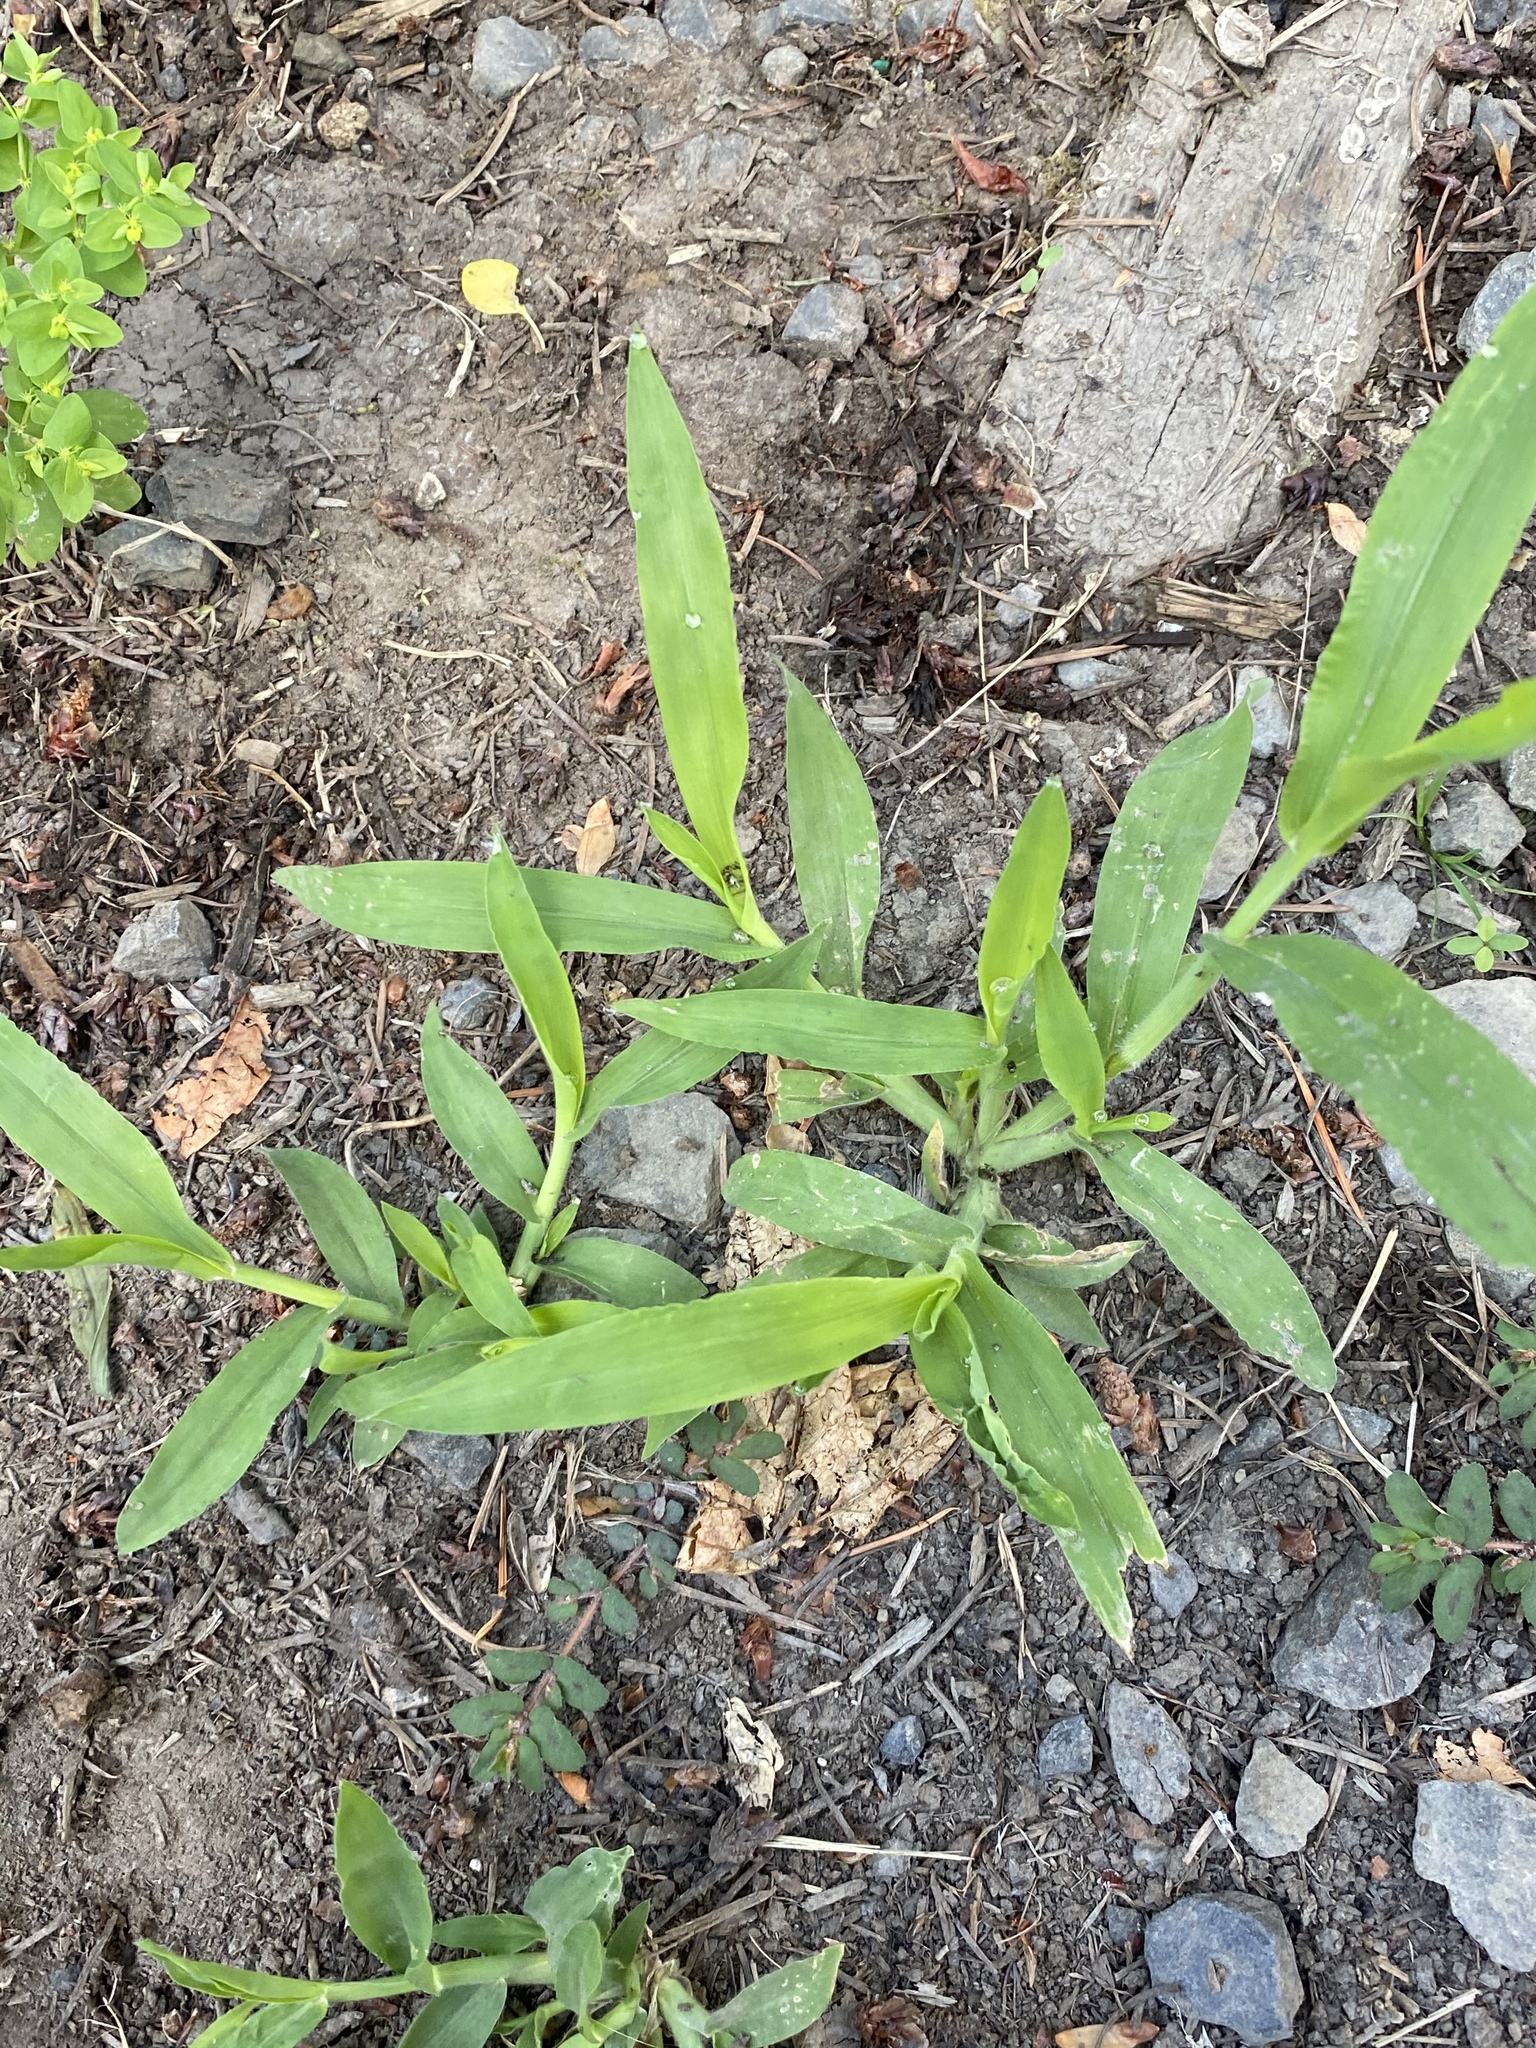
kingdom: Plantae
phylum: Tracheophyta
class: Liliopsida
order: Poales
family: Poaceae
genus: Digitaria
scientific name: Digitaria sanguinalis
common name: Hairy crabgrass
